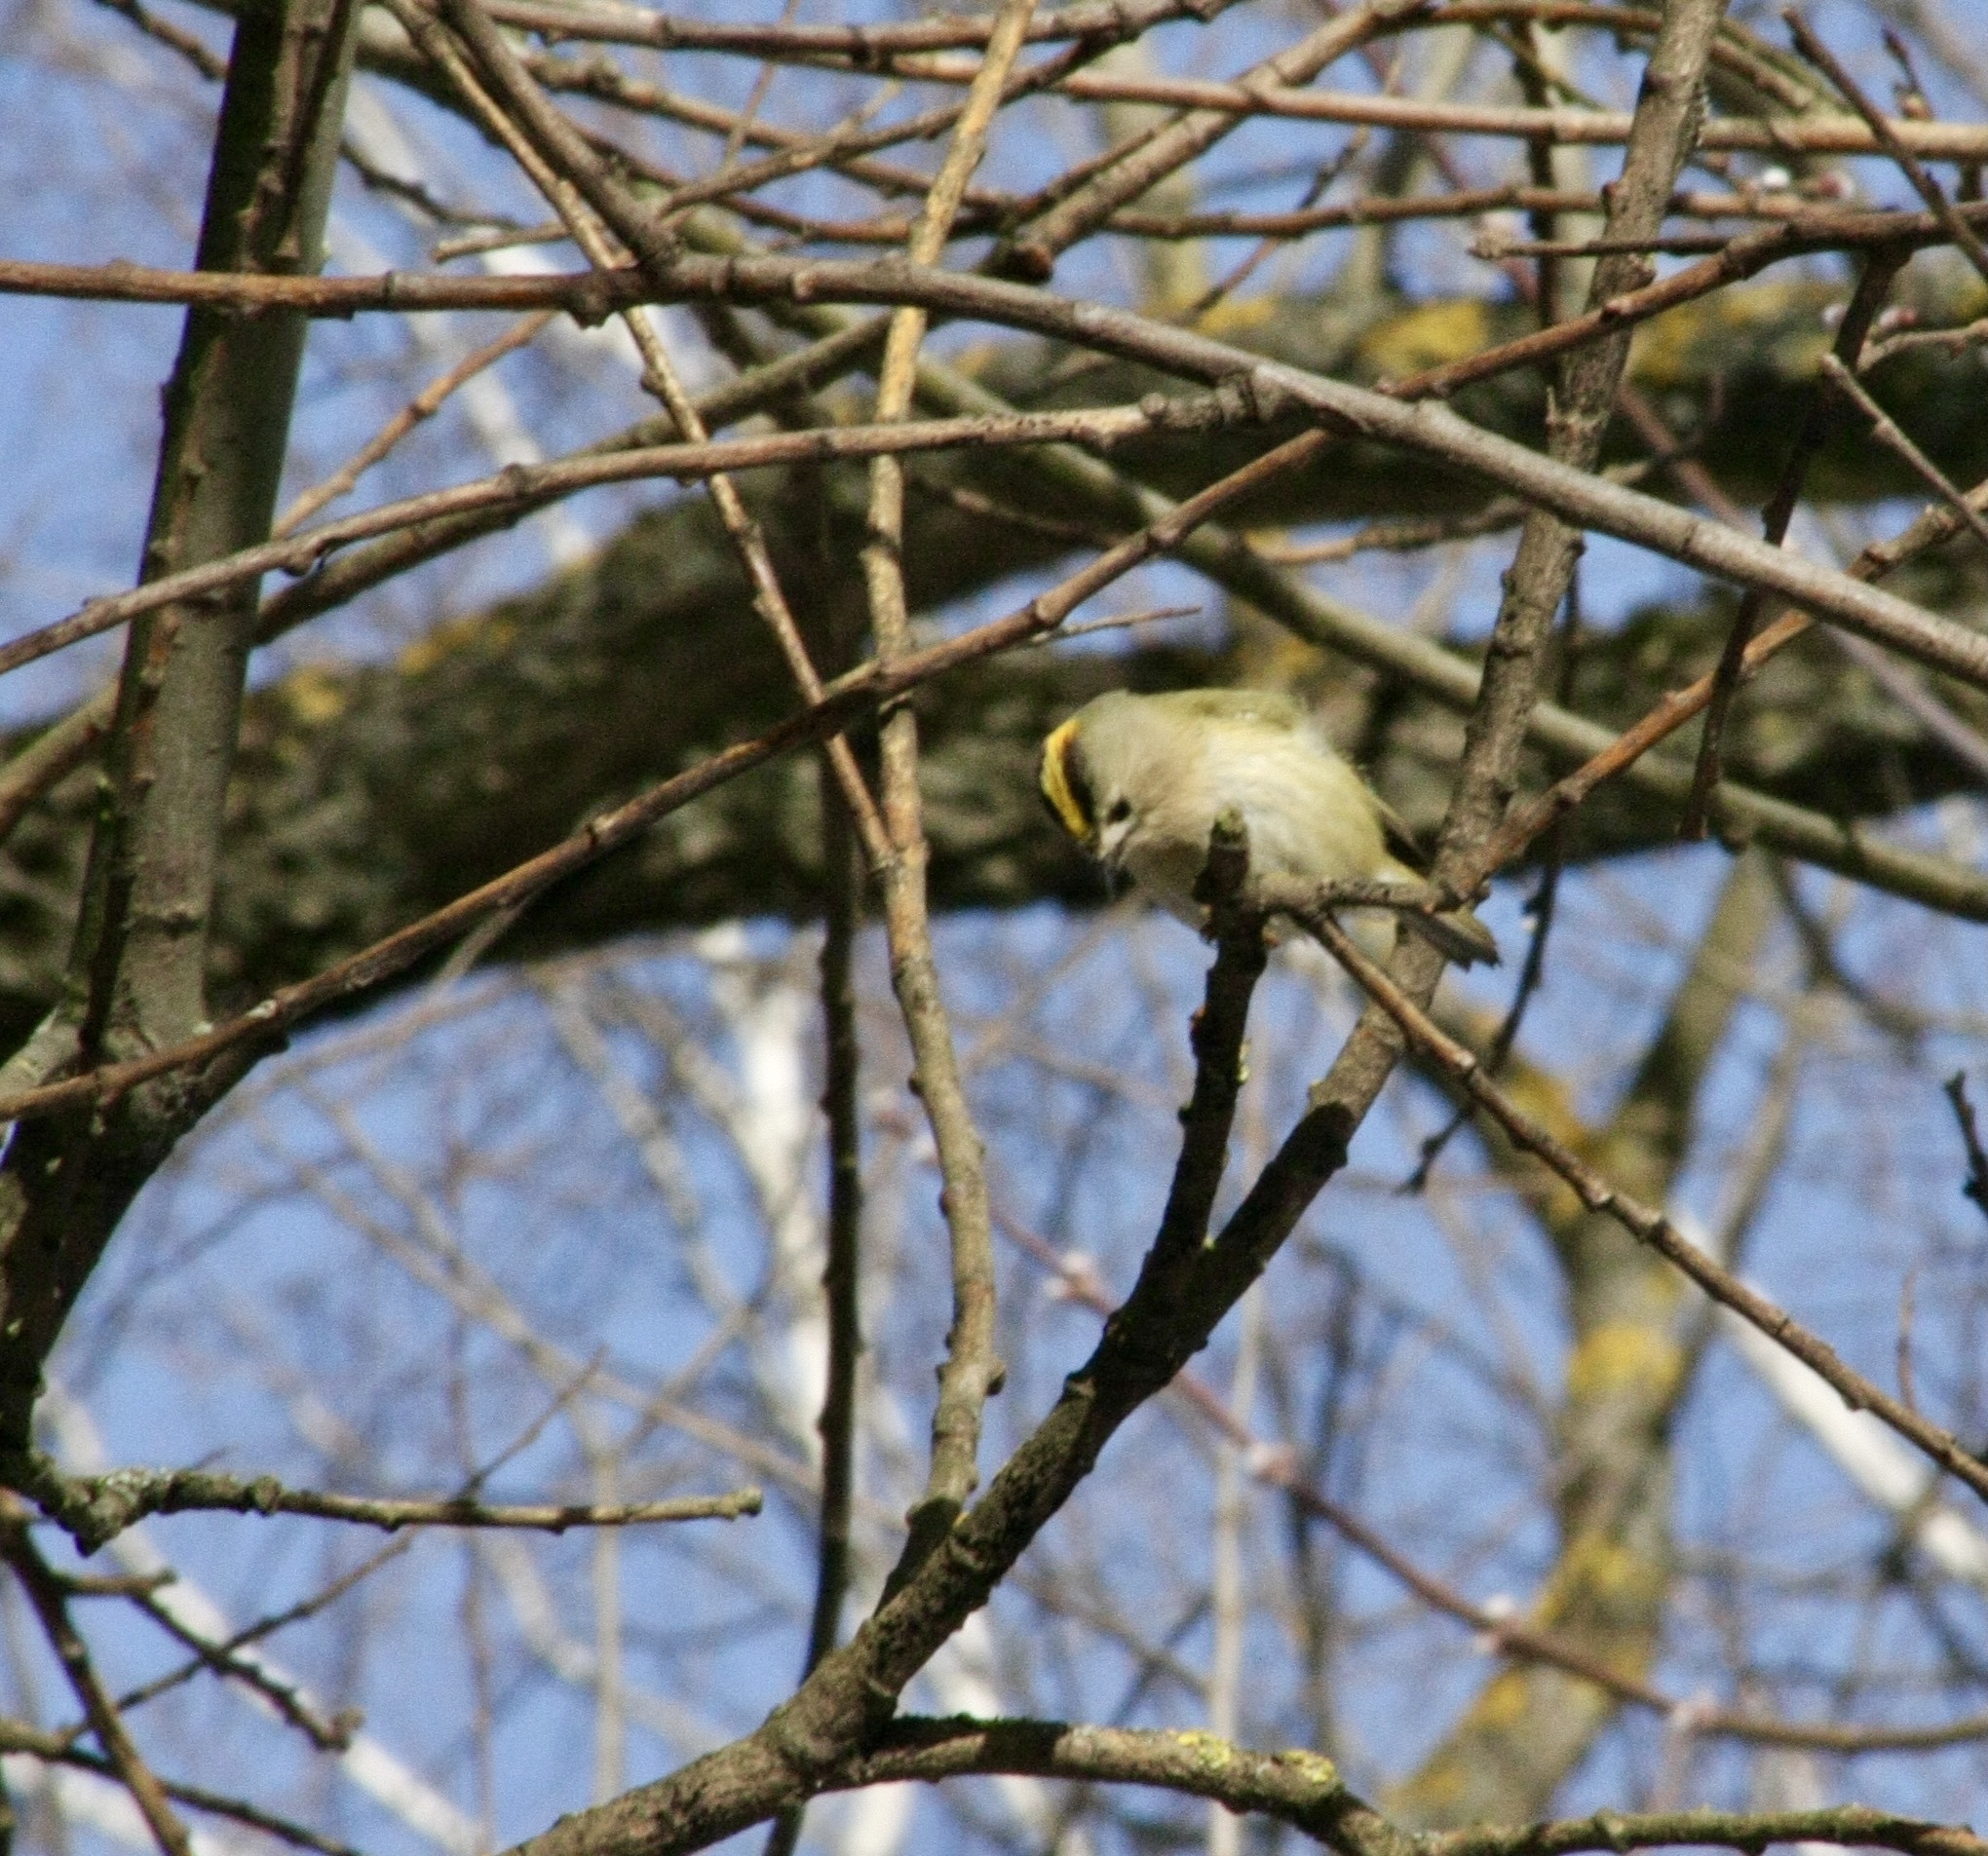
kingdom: Animalia
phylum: Chordata
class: Aves
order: Passeriformes
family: Regulidae
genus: Regulus
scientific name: Regulus regulus
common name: Goldcrest
